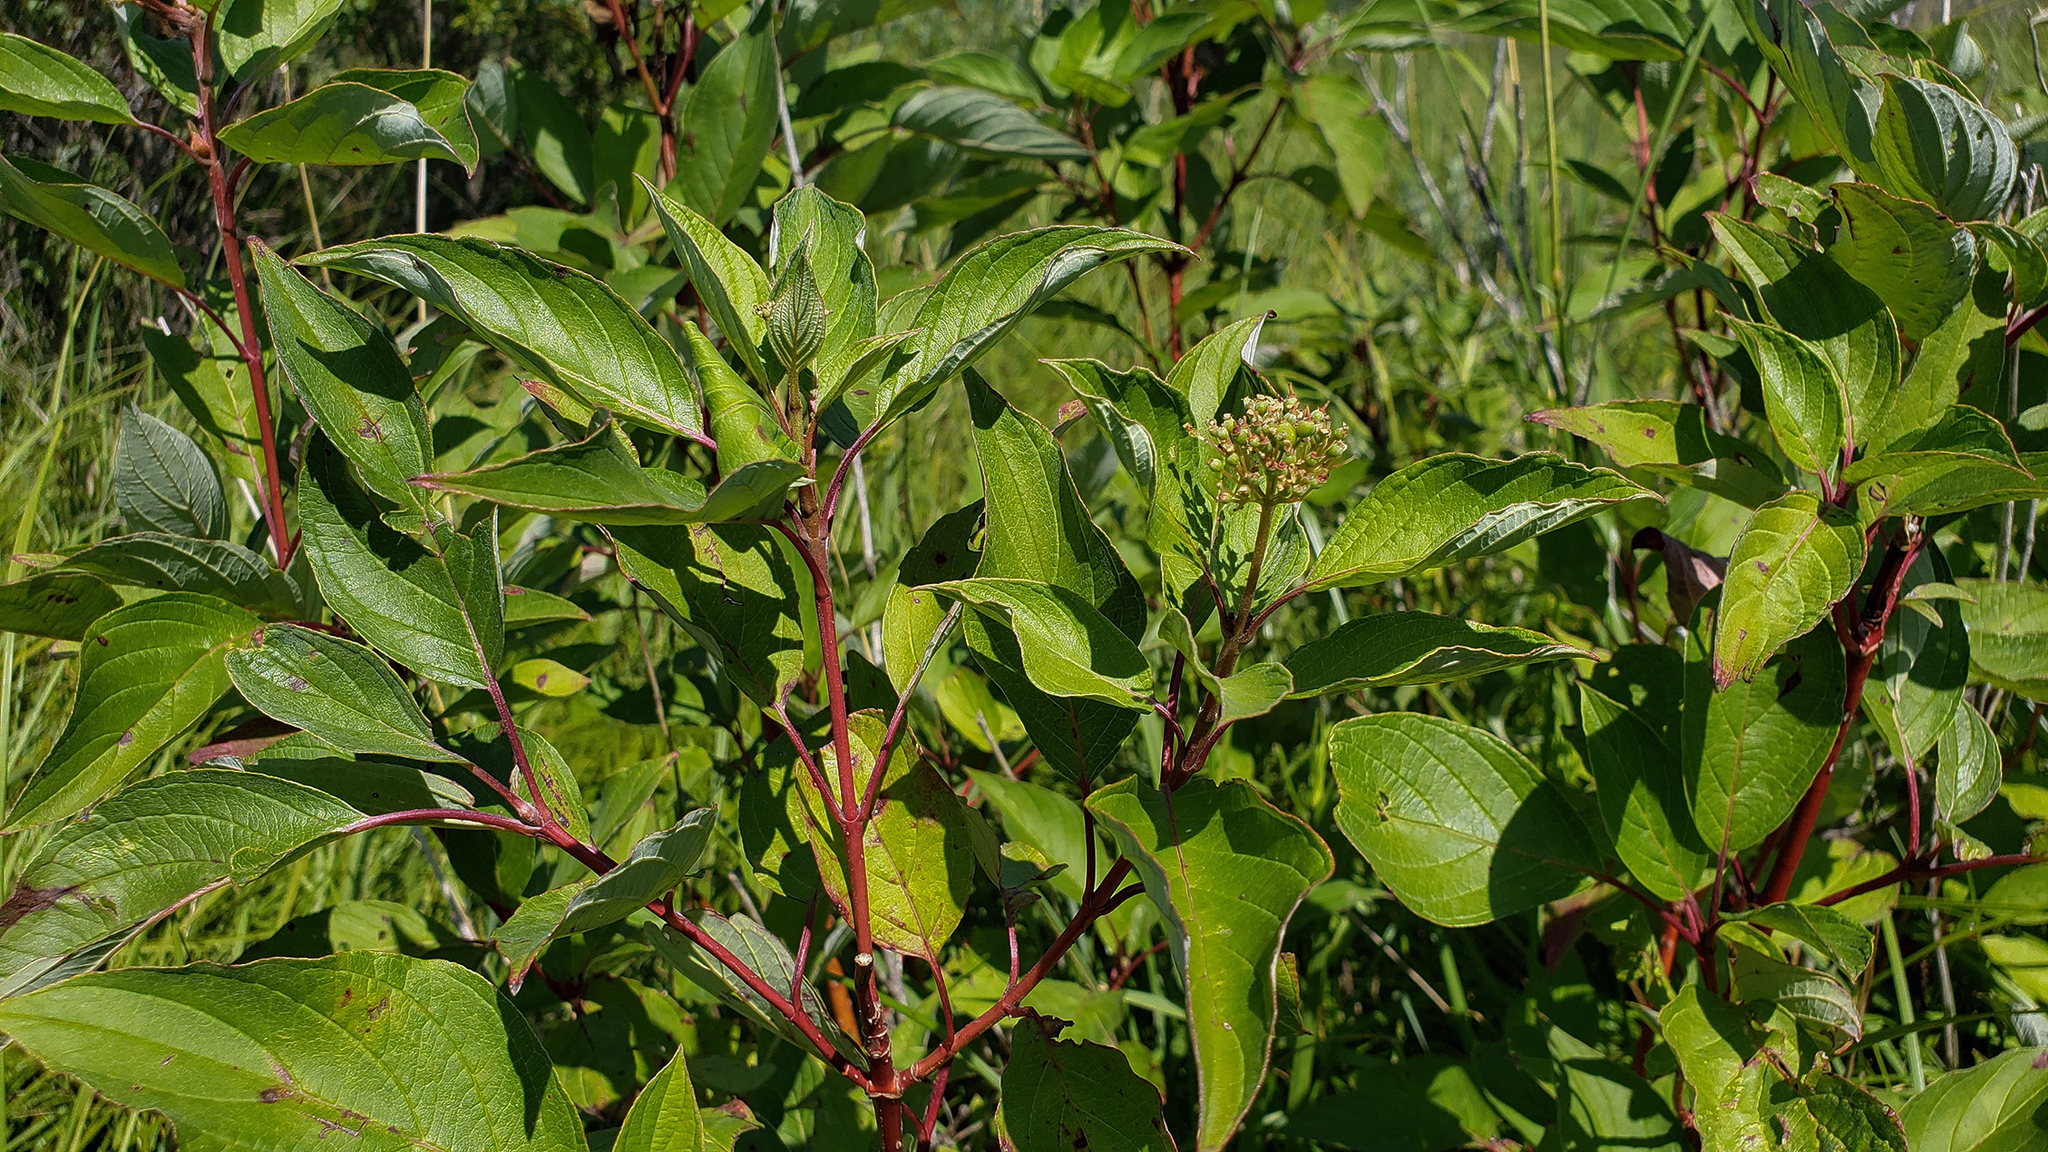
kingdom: Plantae
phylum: Tracheophyta
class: Magnoliopsida
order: Cornales
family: Cornaceae
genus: Cornus
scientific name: Cornus sericea
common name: Red-osier dogwood
